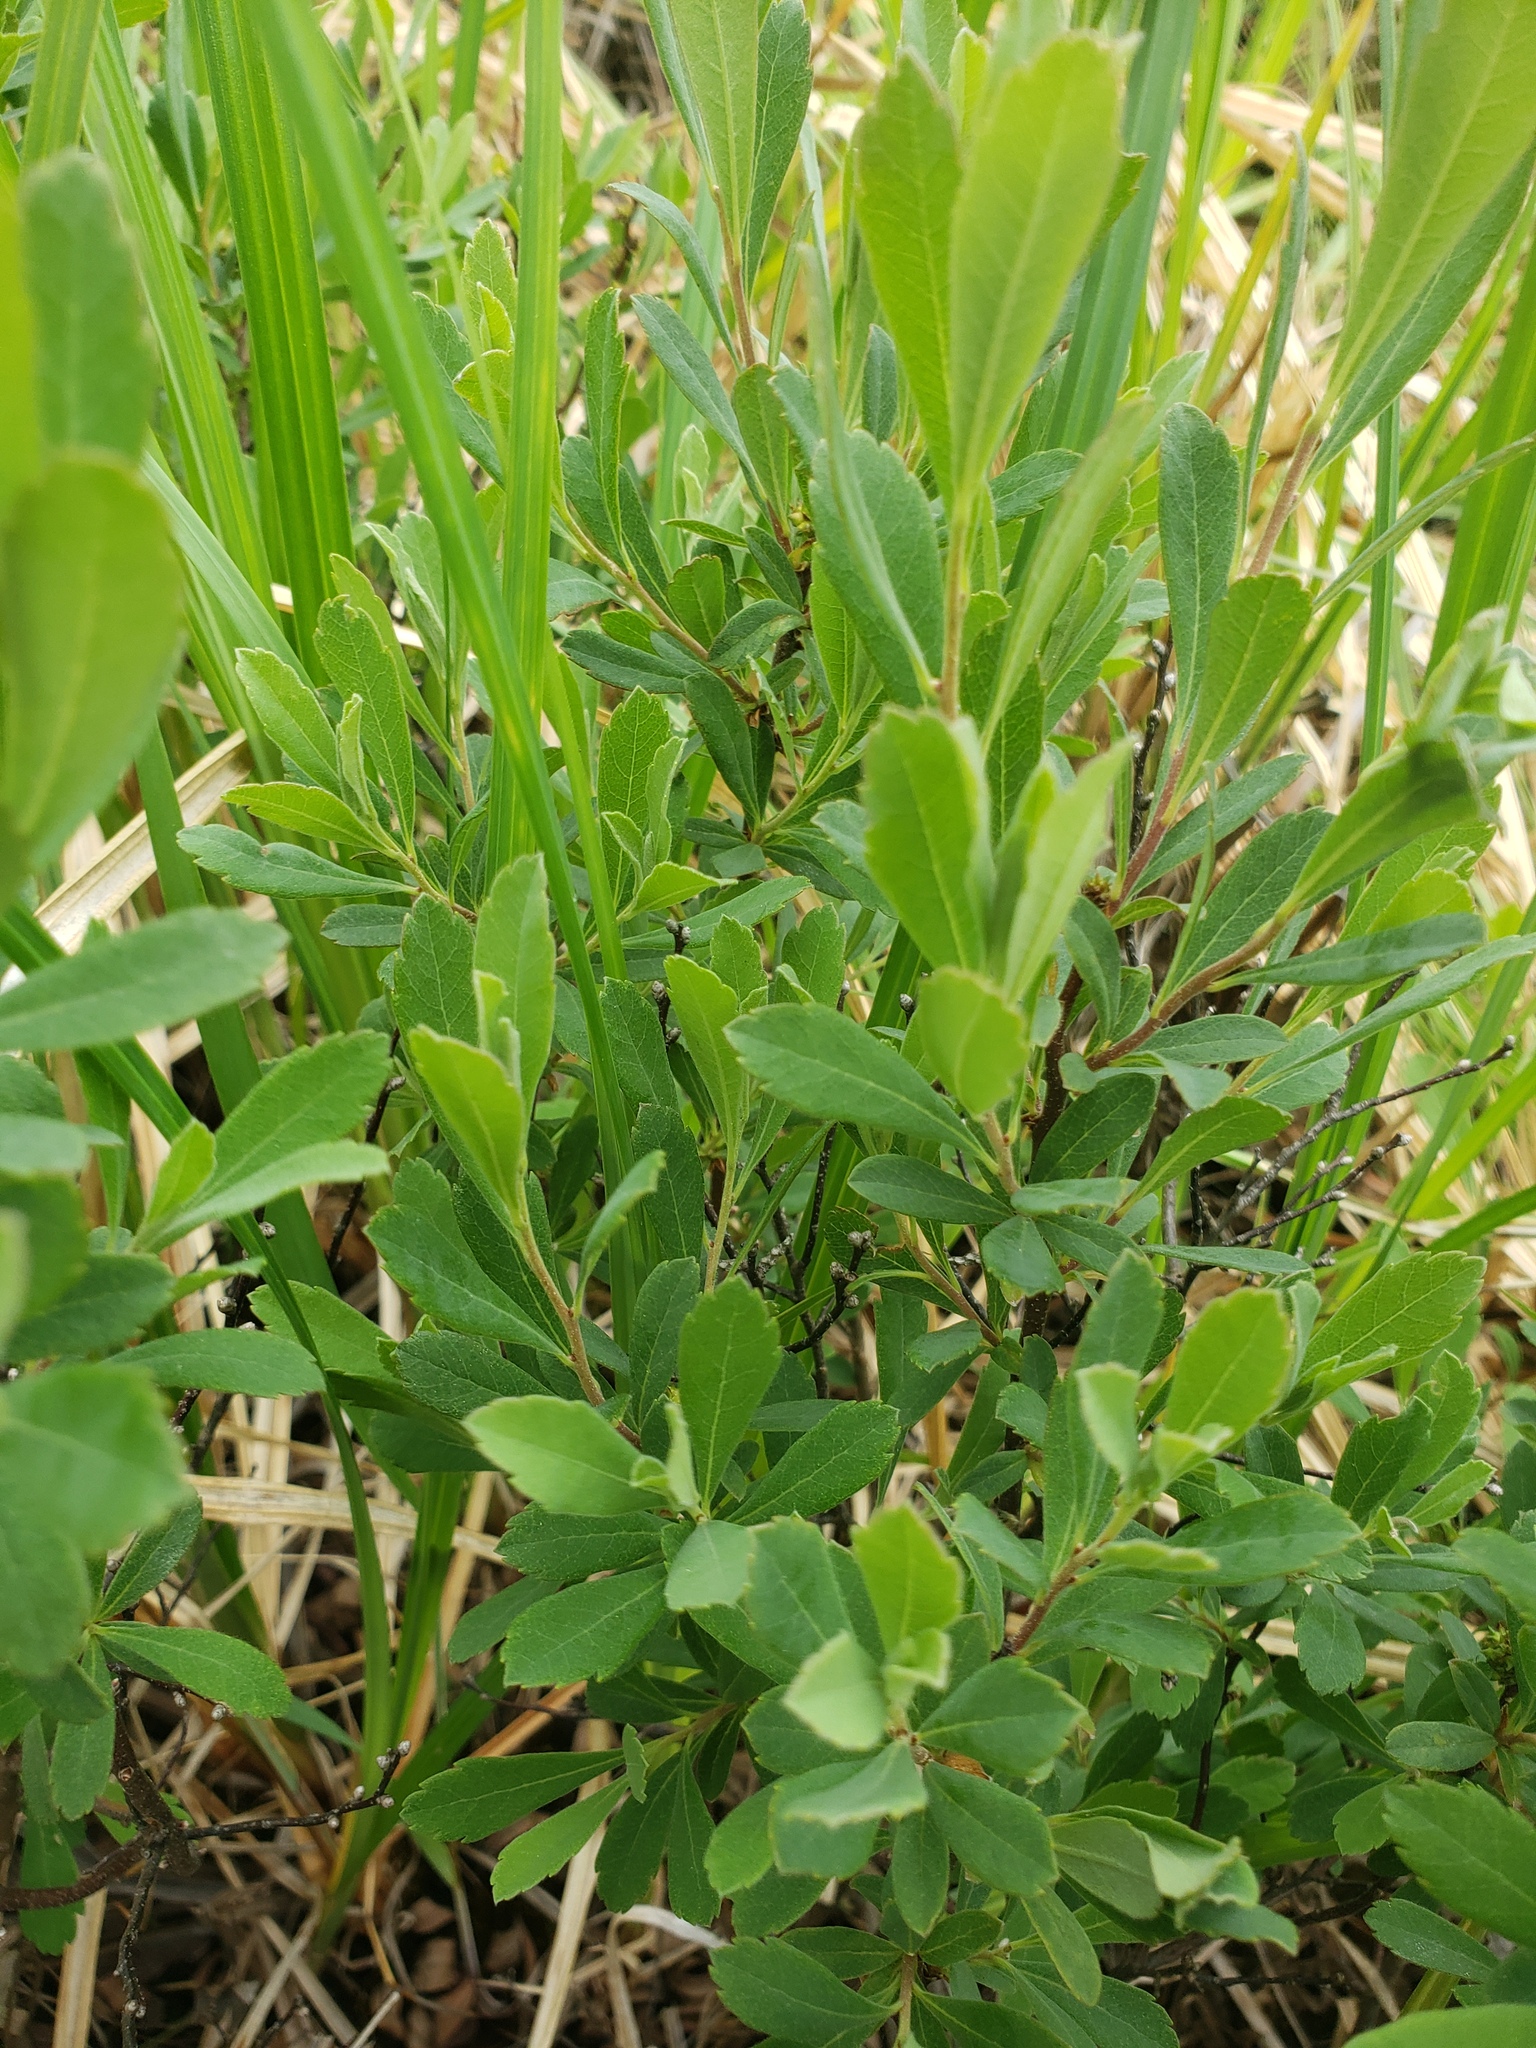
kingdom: Plantae
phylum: Tracheophyta
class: Magnoliopsida
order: Fagales
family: Myricaceae
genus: Myrica
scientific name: Myrica gale
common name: Sweet gale
